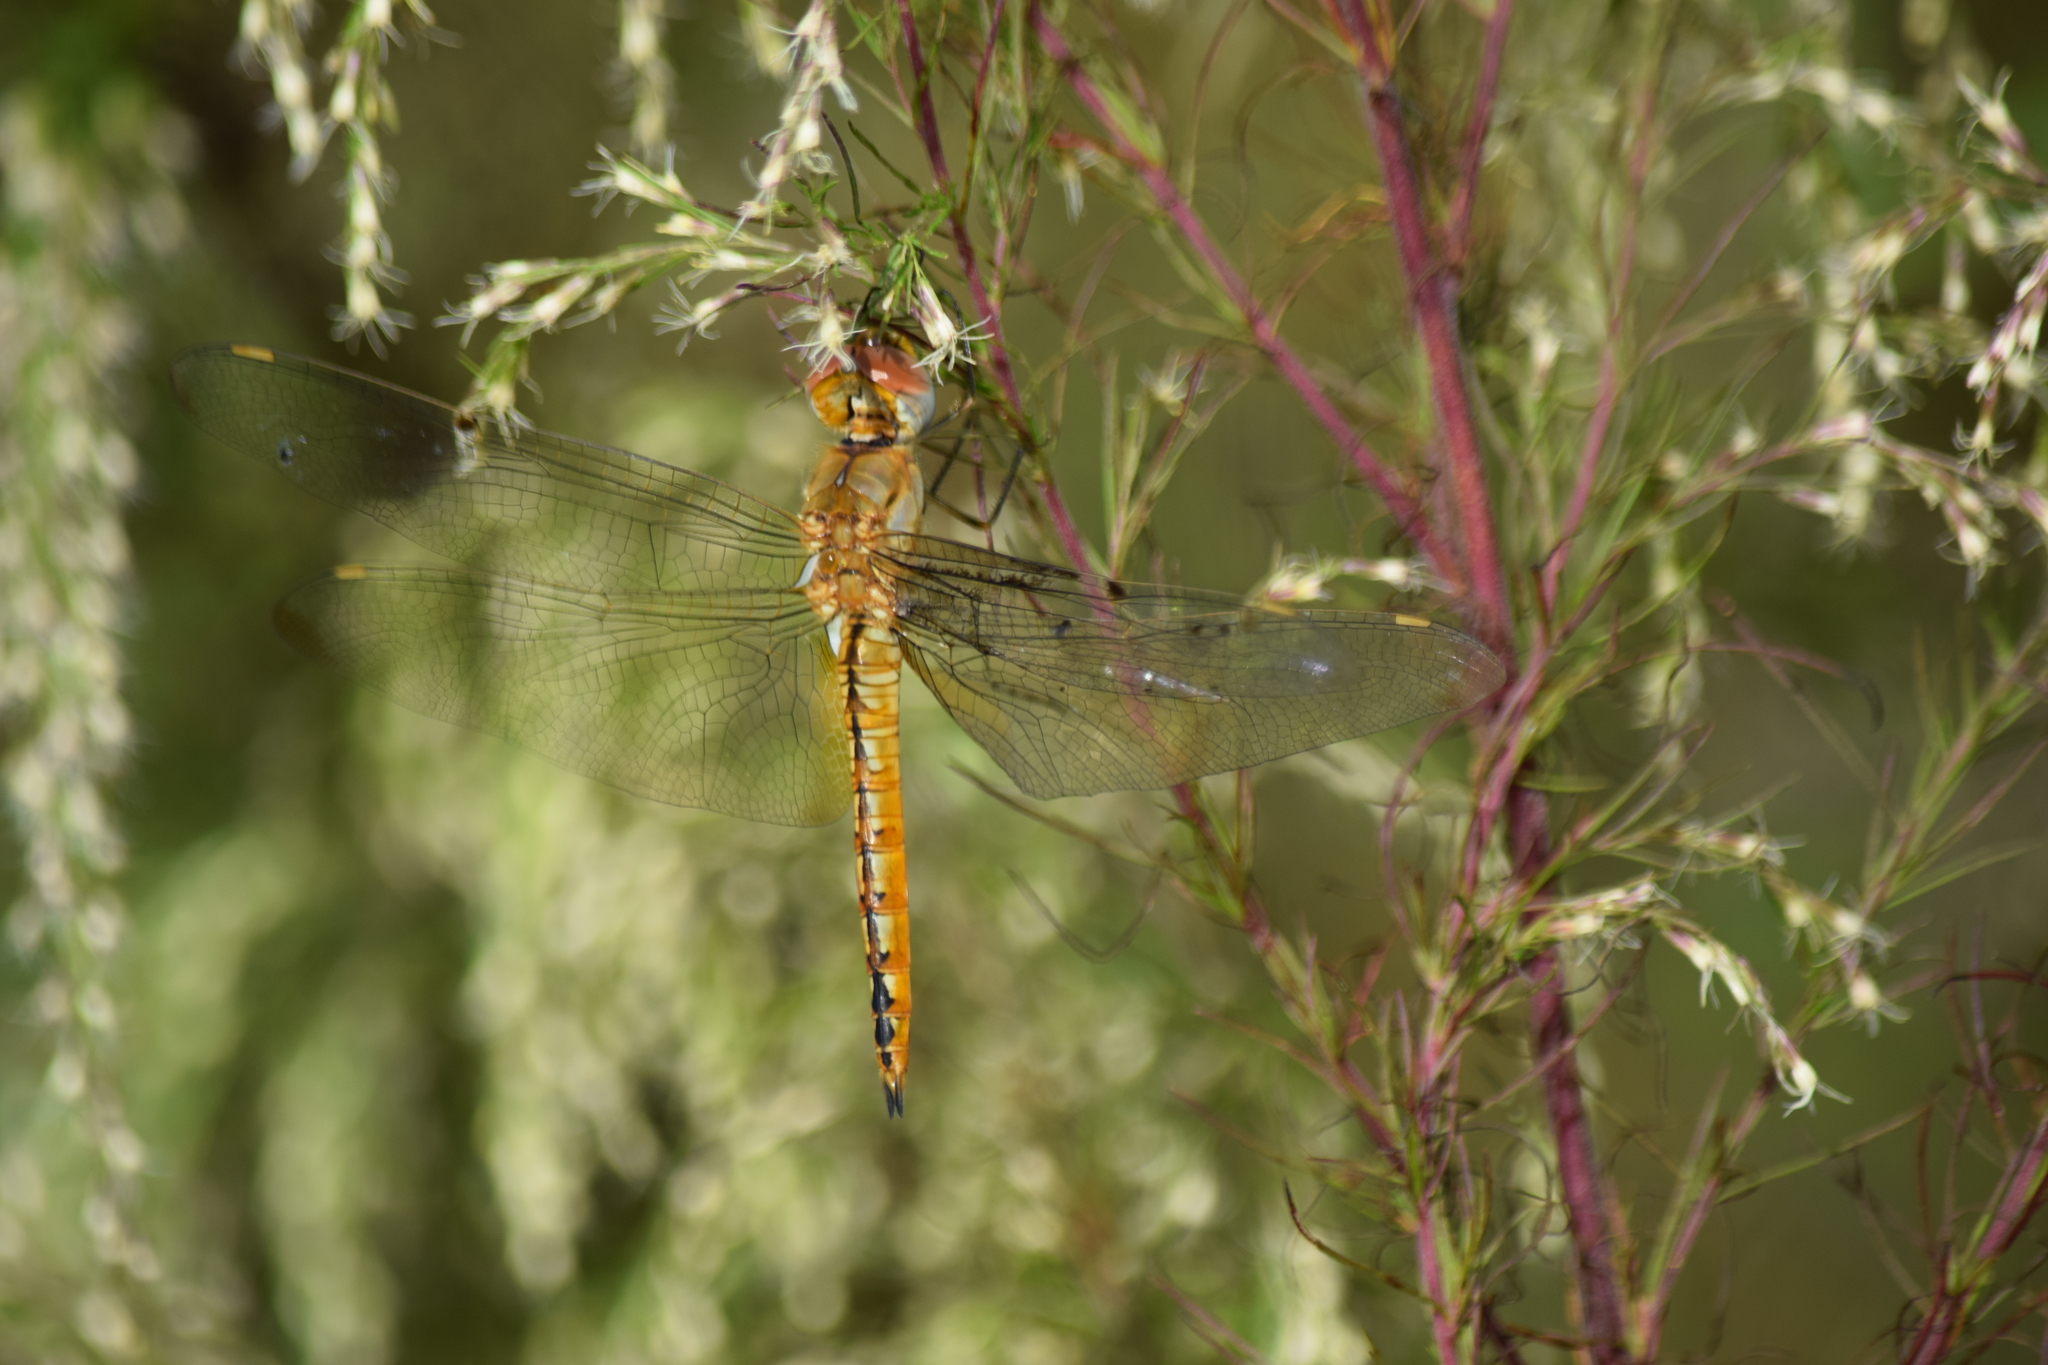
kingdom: Animalia
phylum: Arthropoda
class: Insecta
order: Odonata
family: Libellulidae
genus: Pantala
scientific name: Pantala flavescens
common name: Wandering glider
